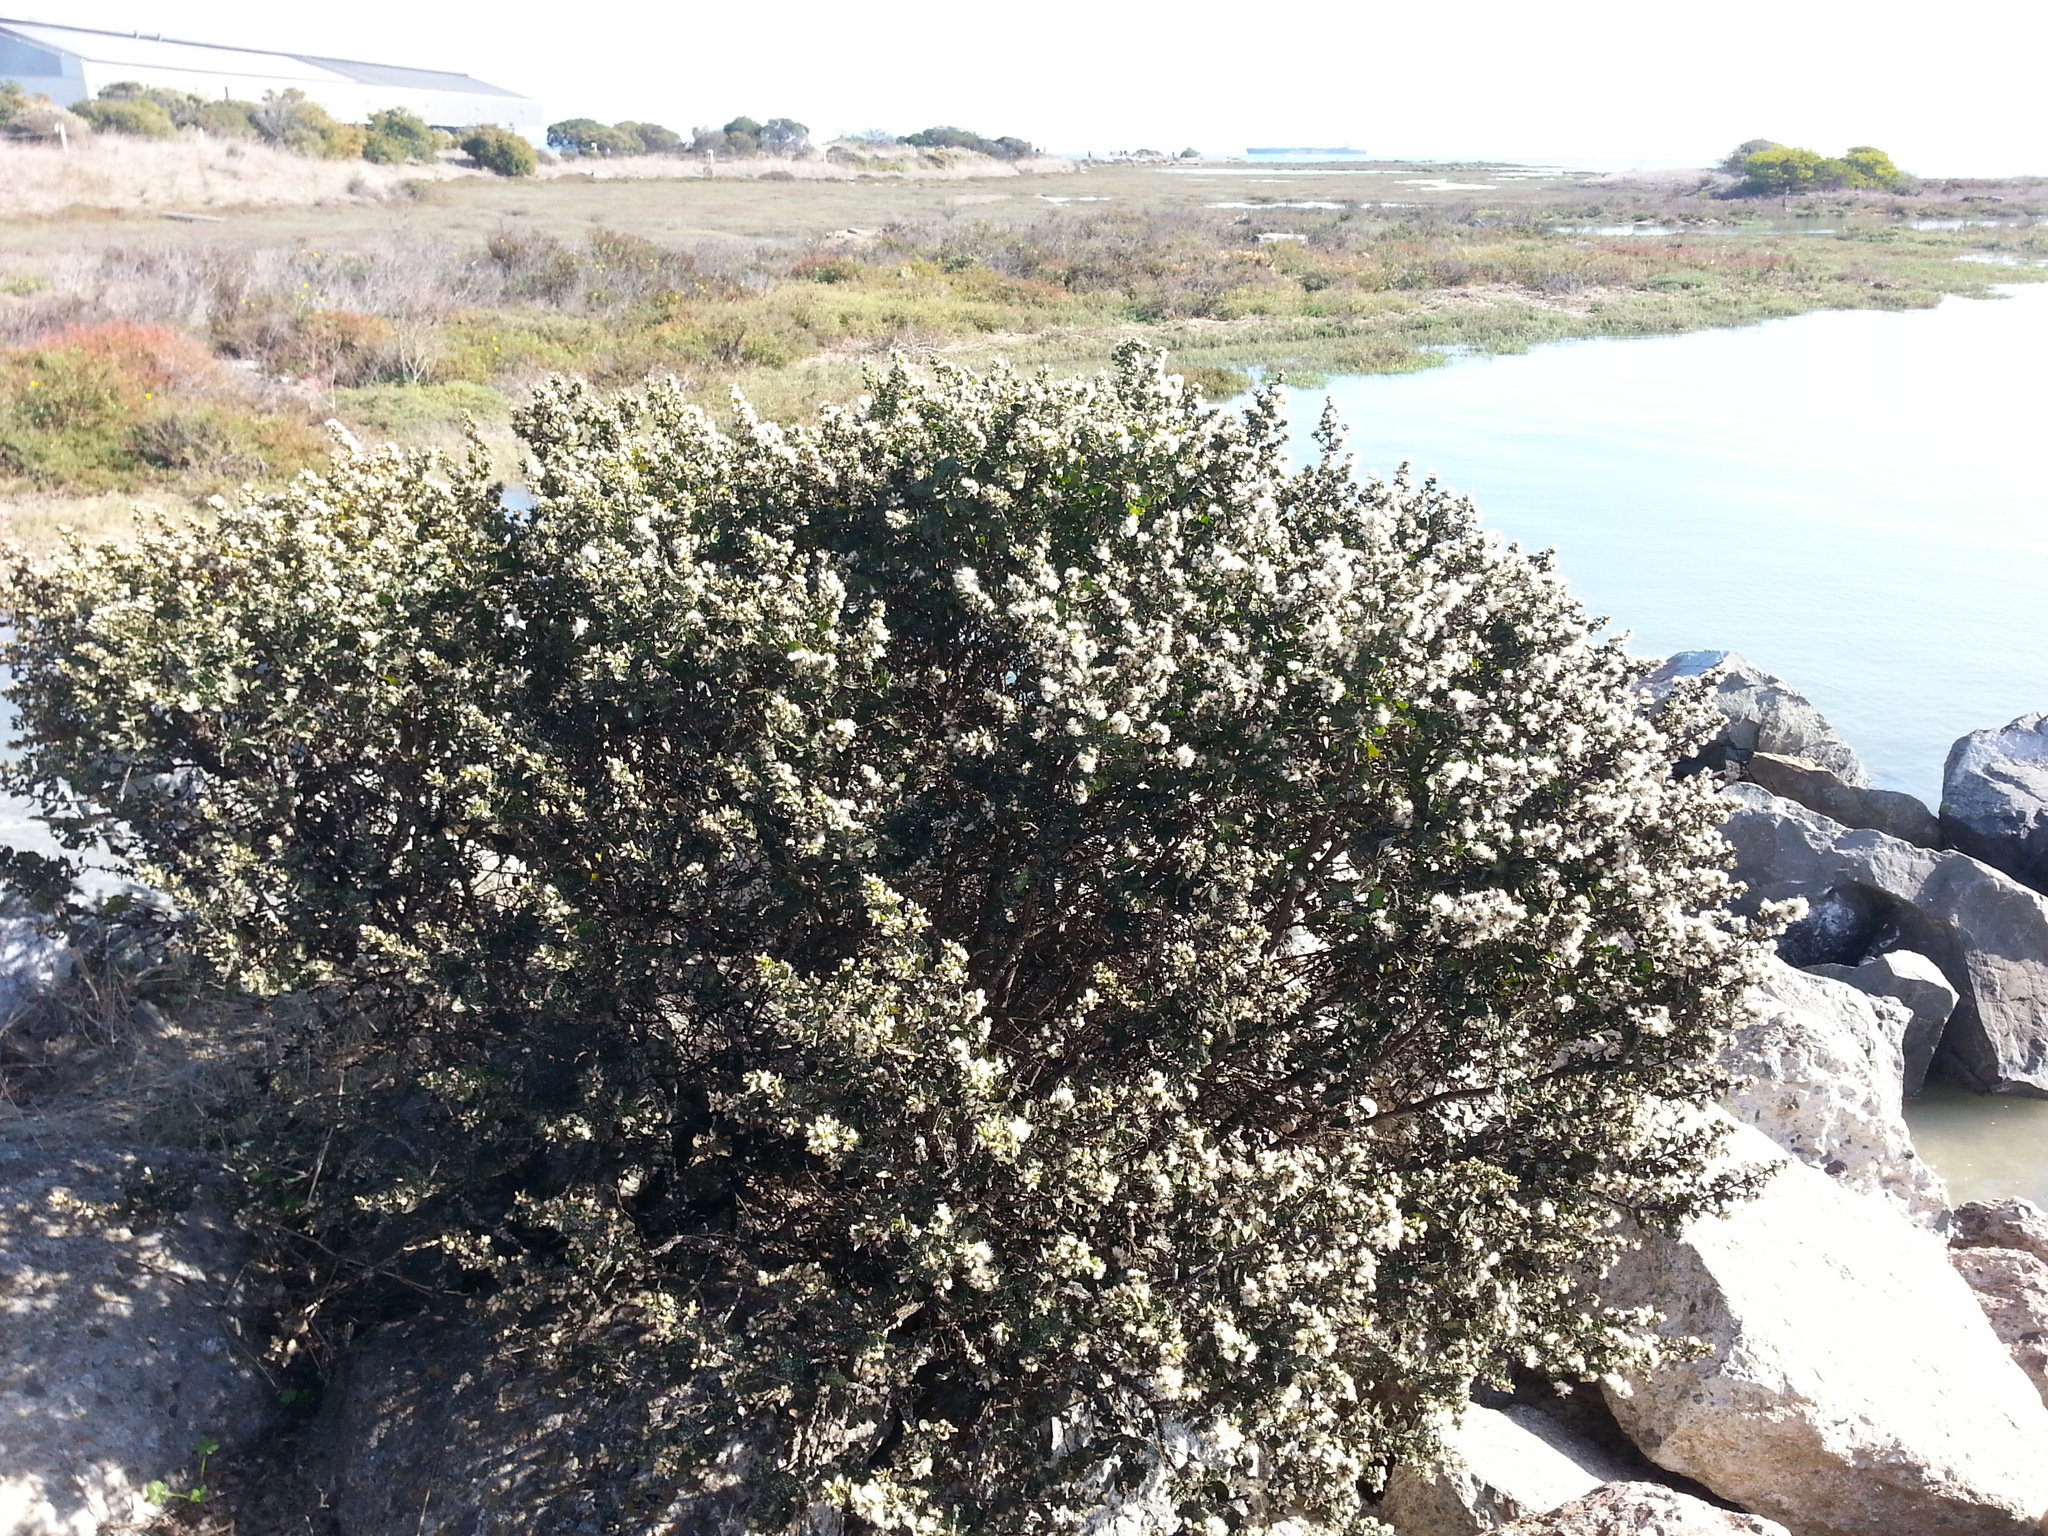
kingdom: Plantae
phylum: Tracheophyta
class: Magnoliopsida
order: Asterales
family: Asteraceae
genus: Baccharis
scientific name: Baccharis pilularis
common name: Coyotebrush
